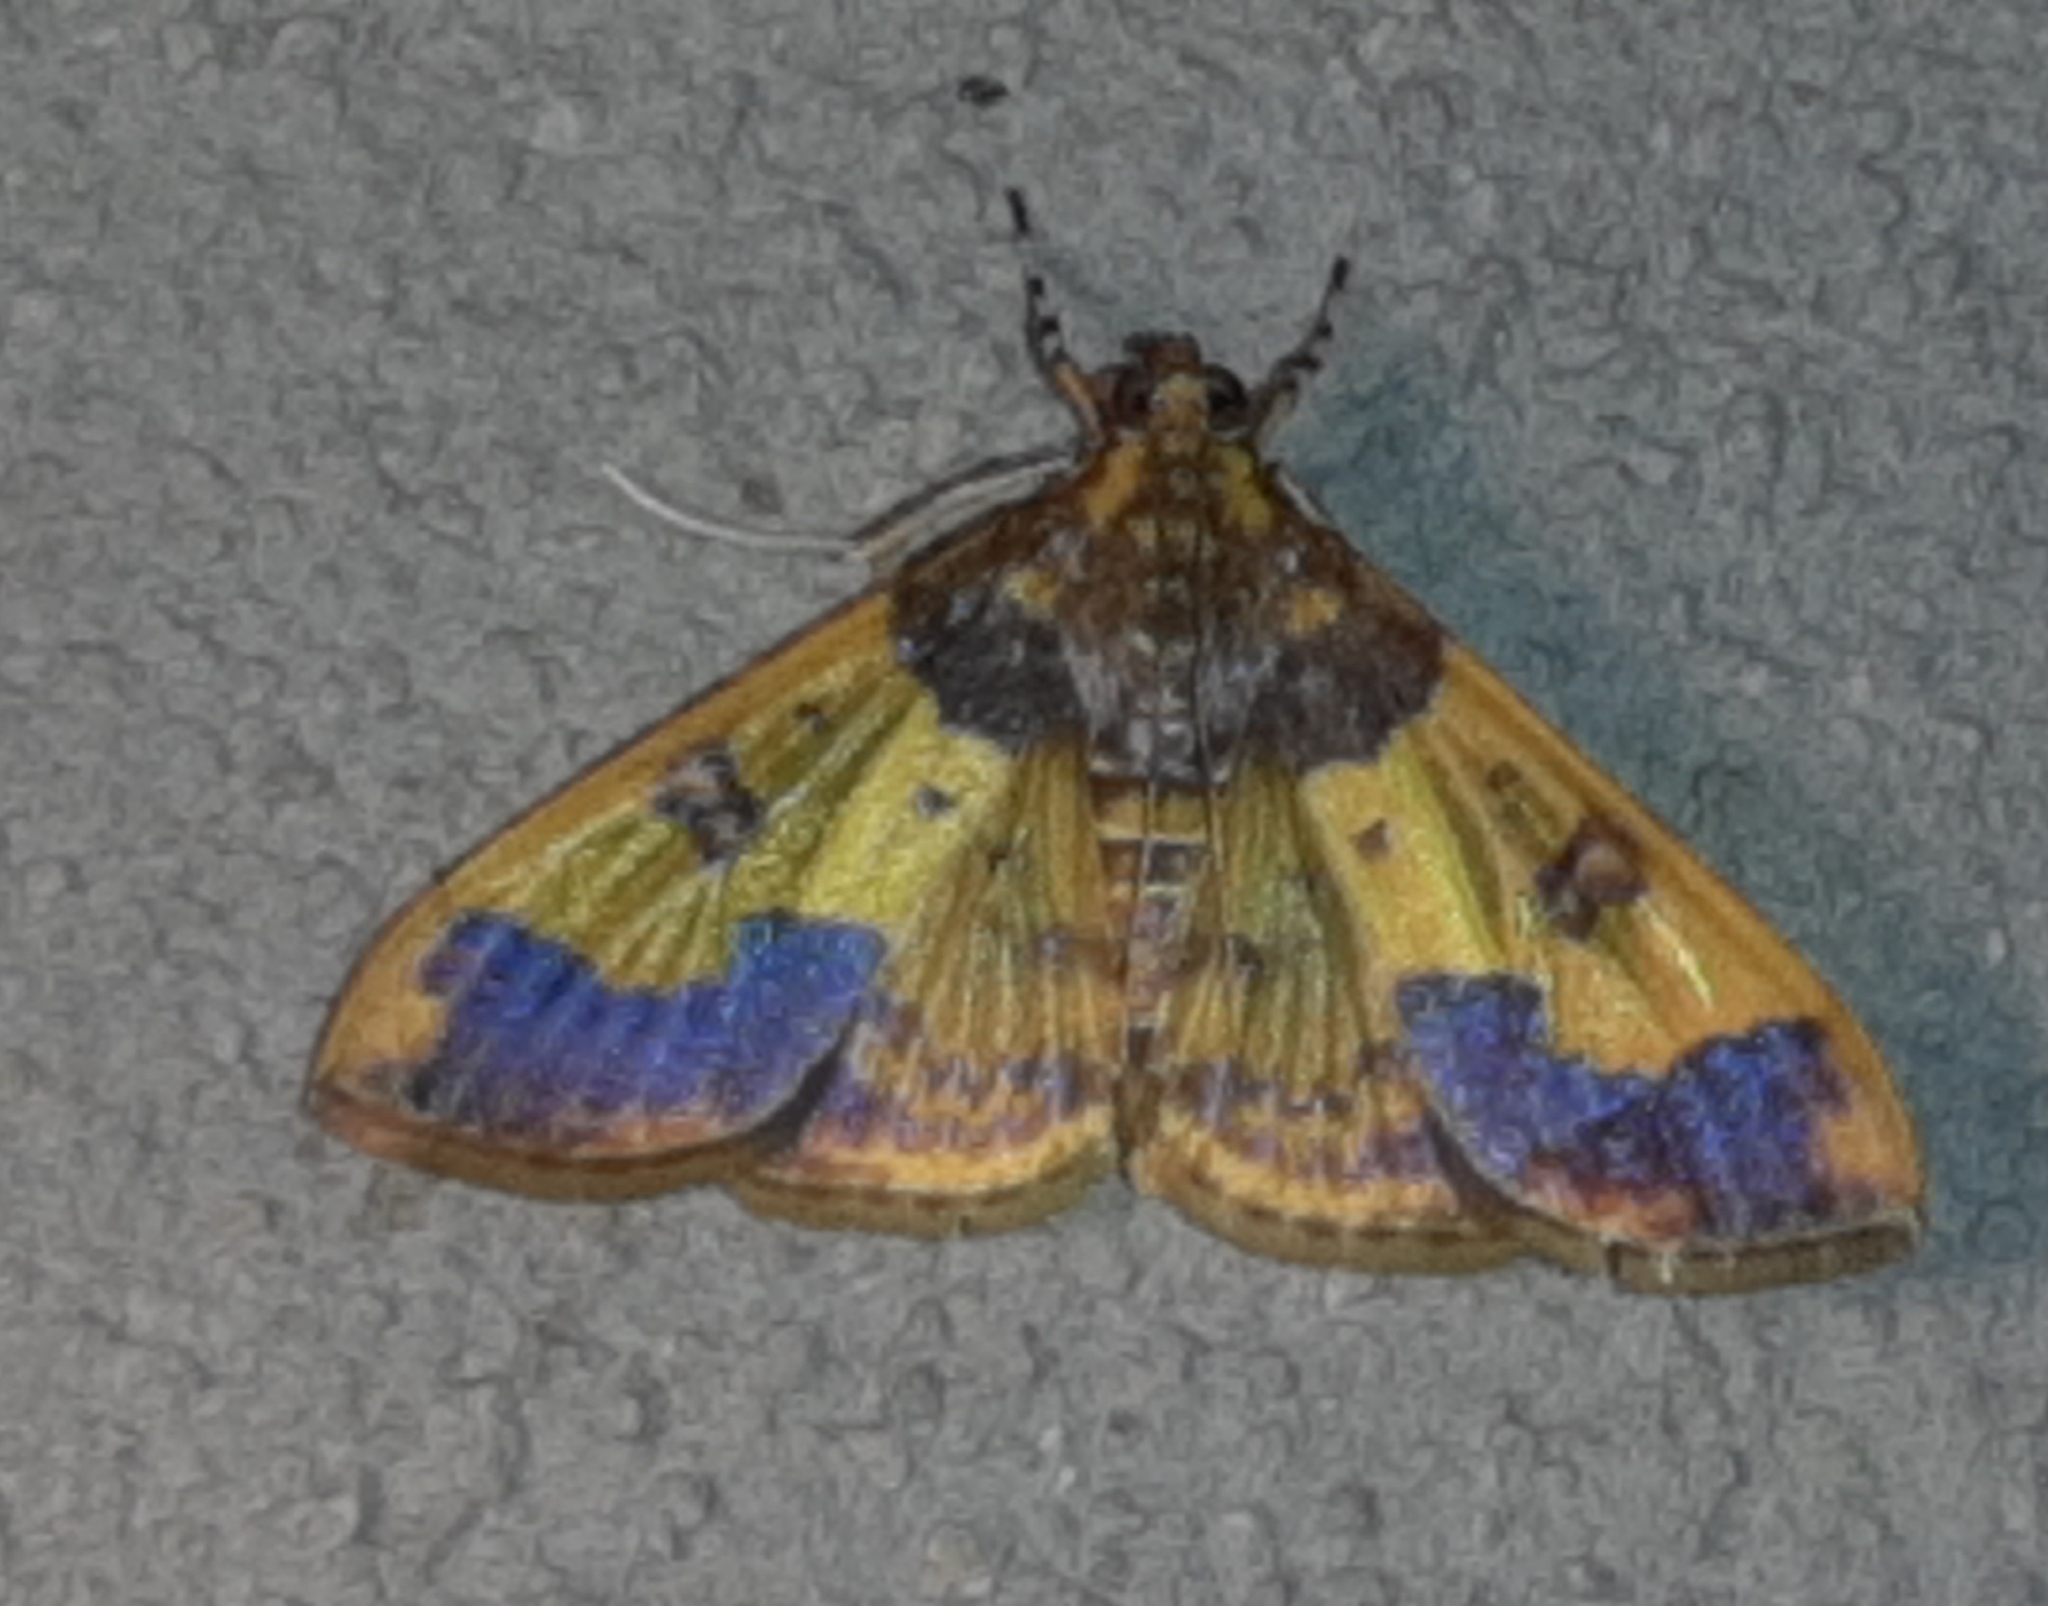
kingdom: Animalia
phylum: Arthropoda
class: Insecta
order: Lepidoptera
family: Crambidae
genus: Syllepte
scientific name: Syllepte pactolalis
